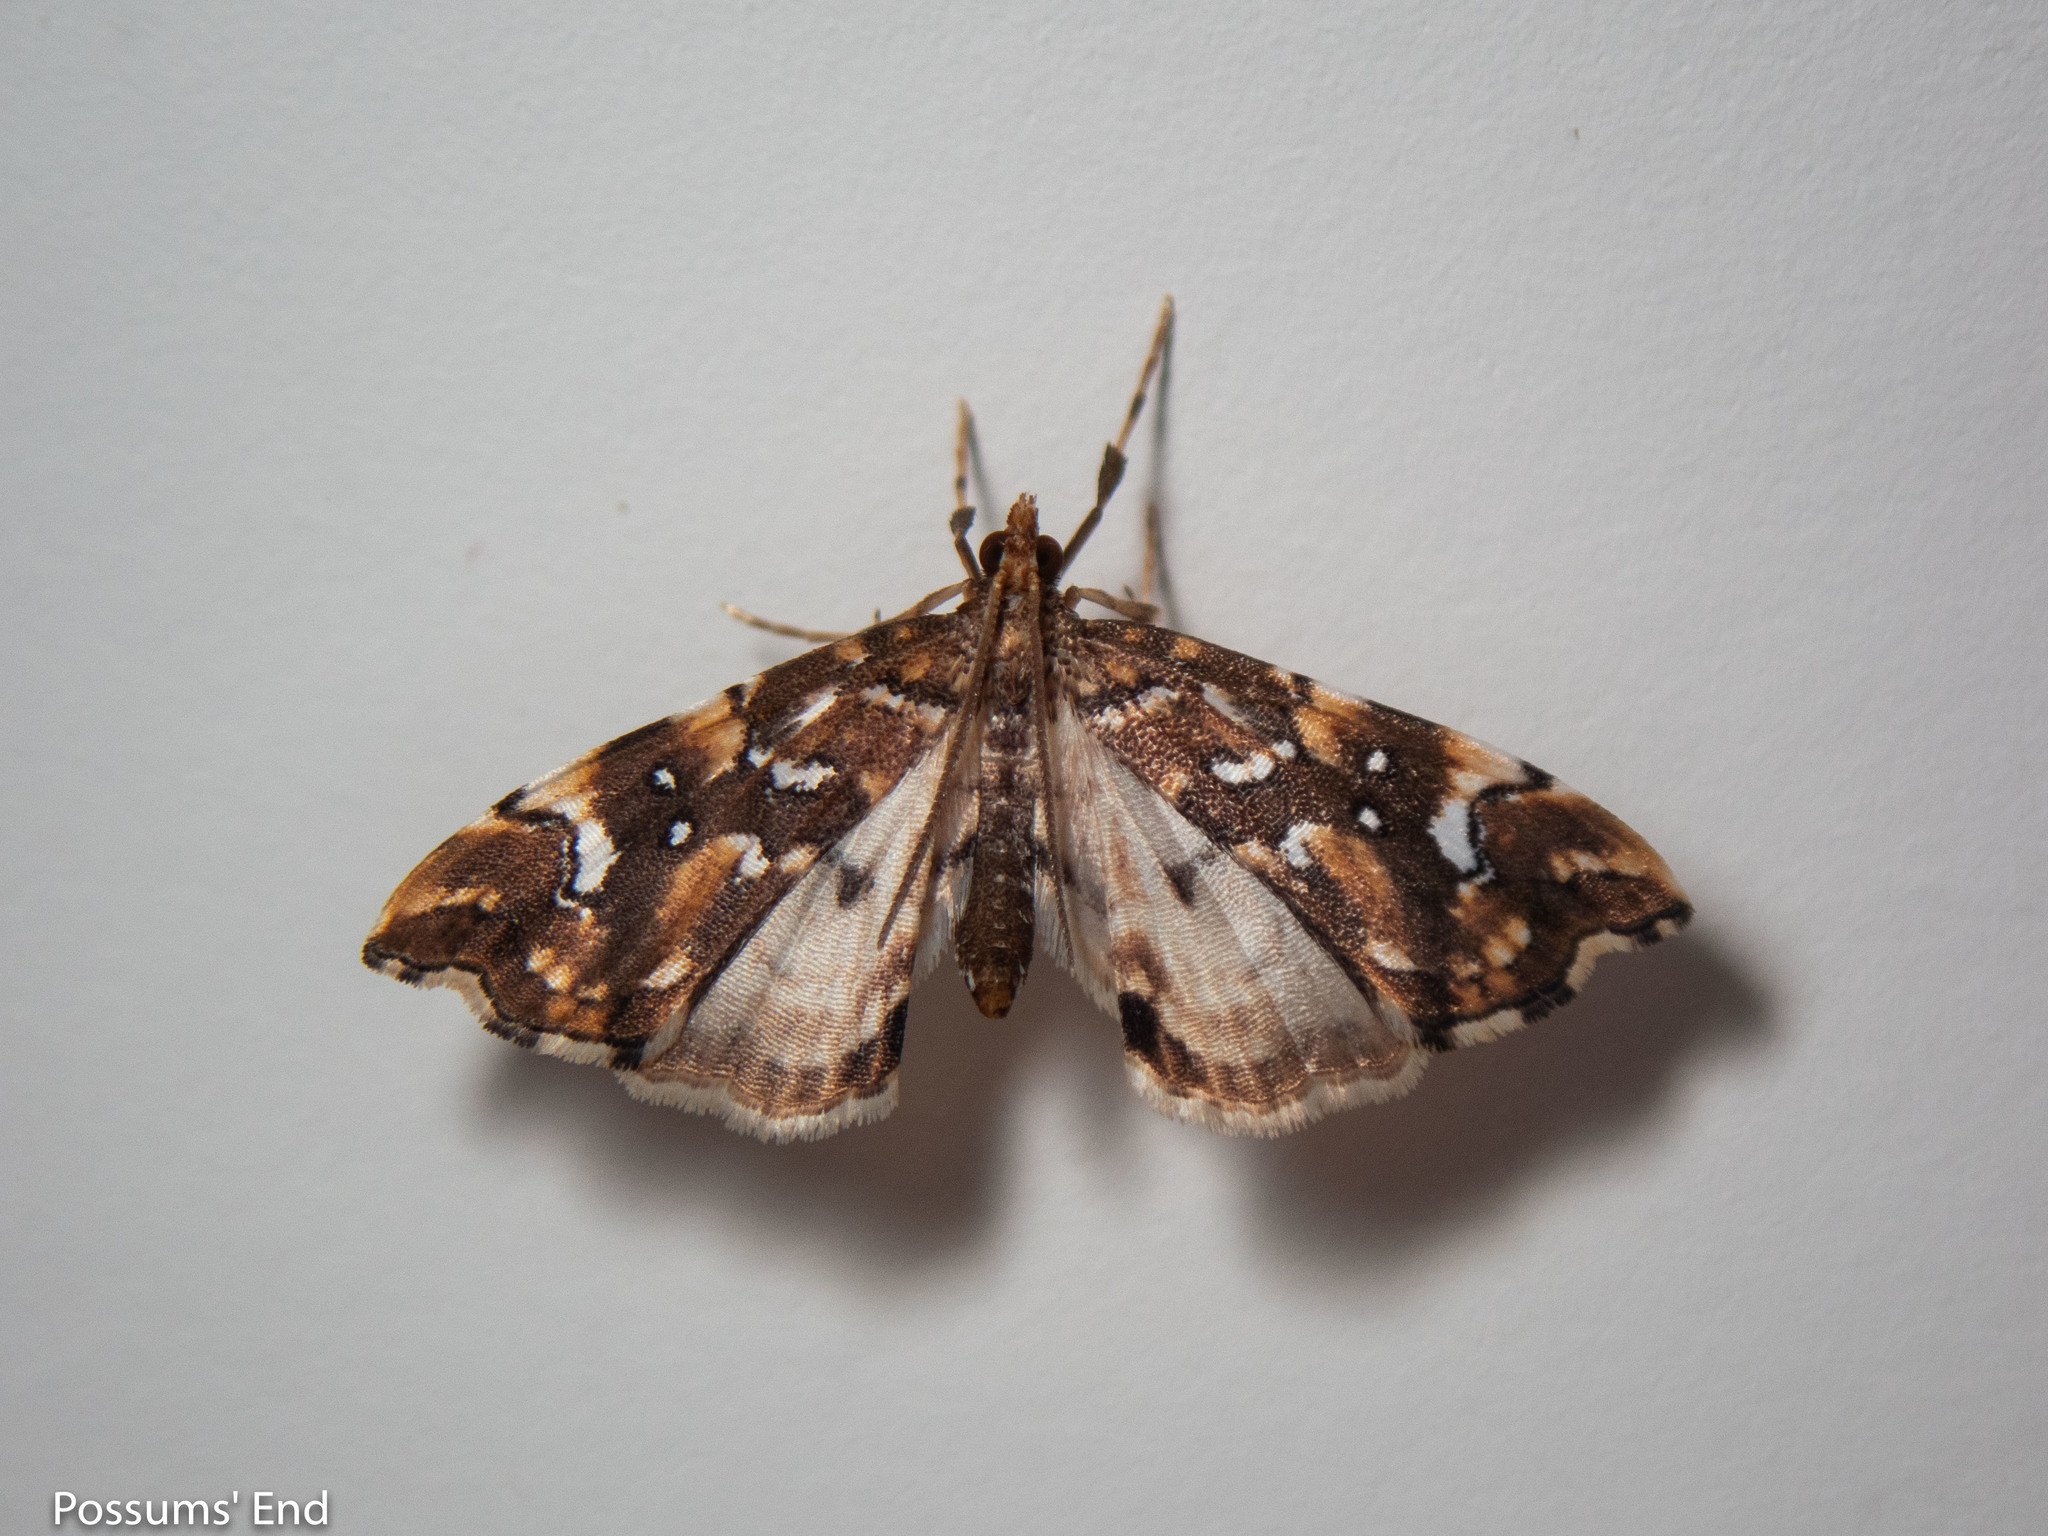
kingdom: Animalia
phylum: Arthropoda
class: Insecta
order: Lepidoptera
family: Pyralidae
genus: Musotima
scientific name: Musotima nitidalis
